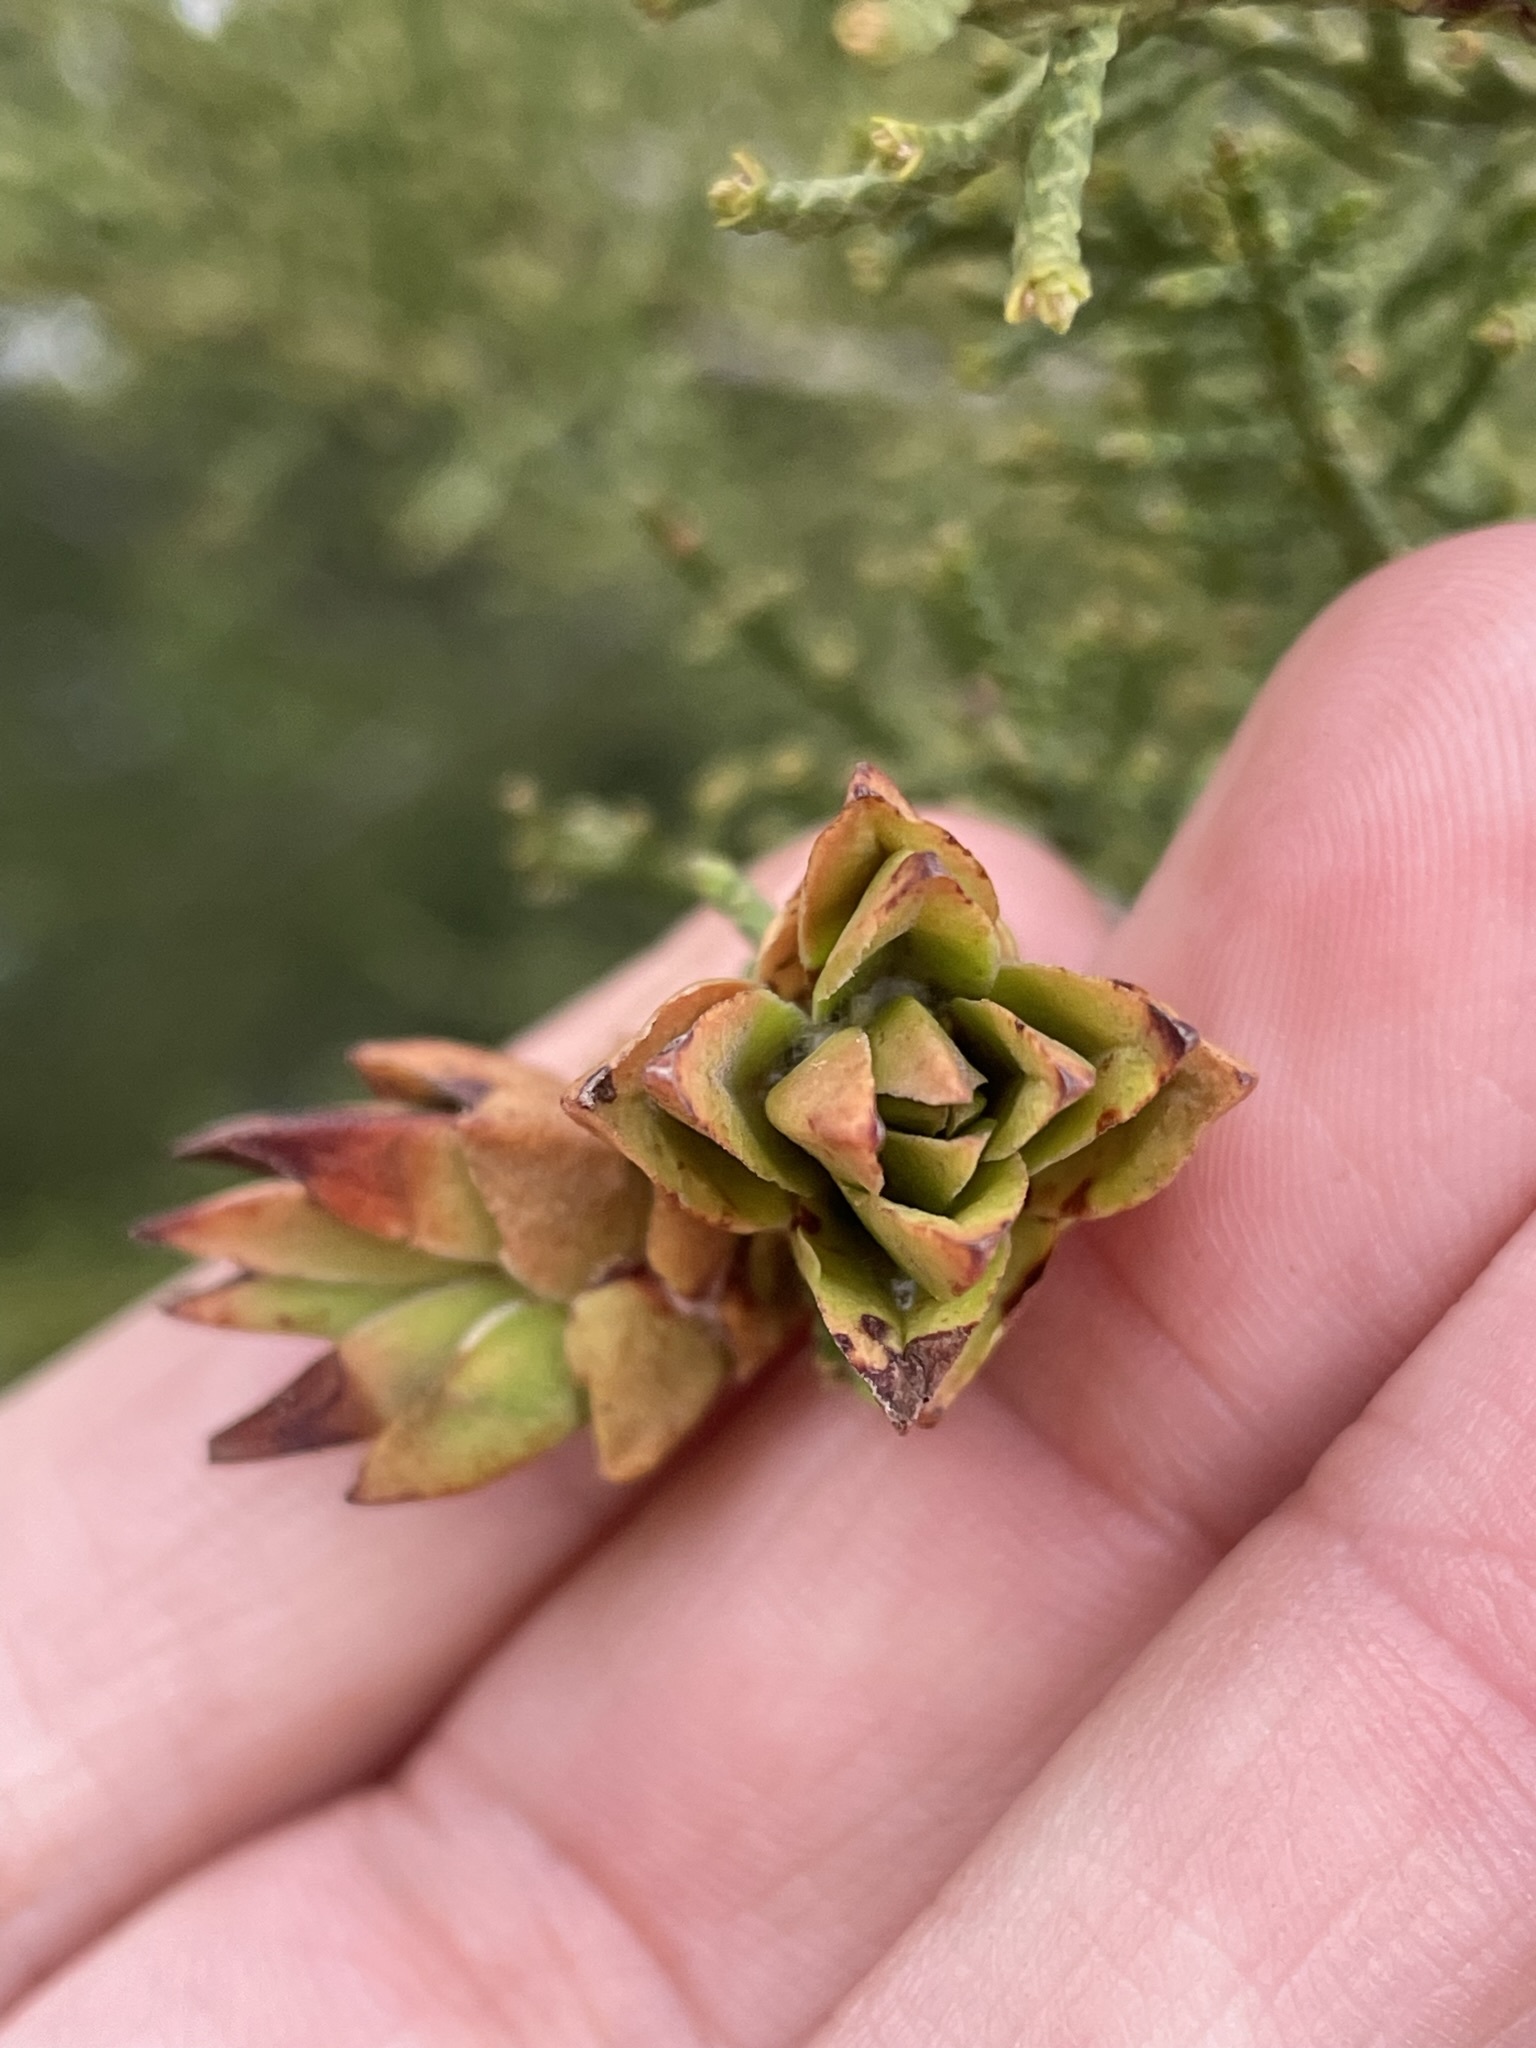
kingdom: Animalia
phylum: Arthropoda
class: Insecta
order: Diptera
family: Cecidomyiidae
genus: Oligotrophus
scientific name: Oligotrophus cupressi
